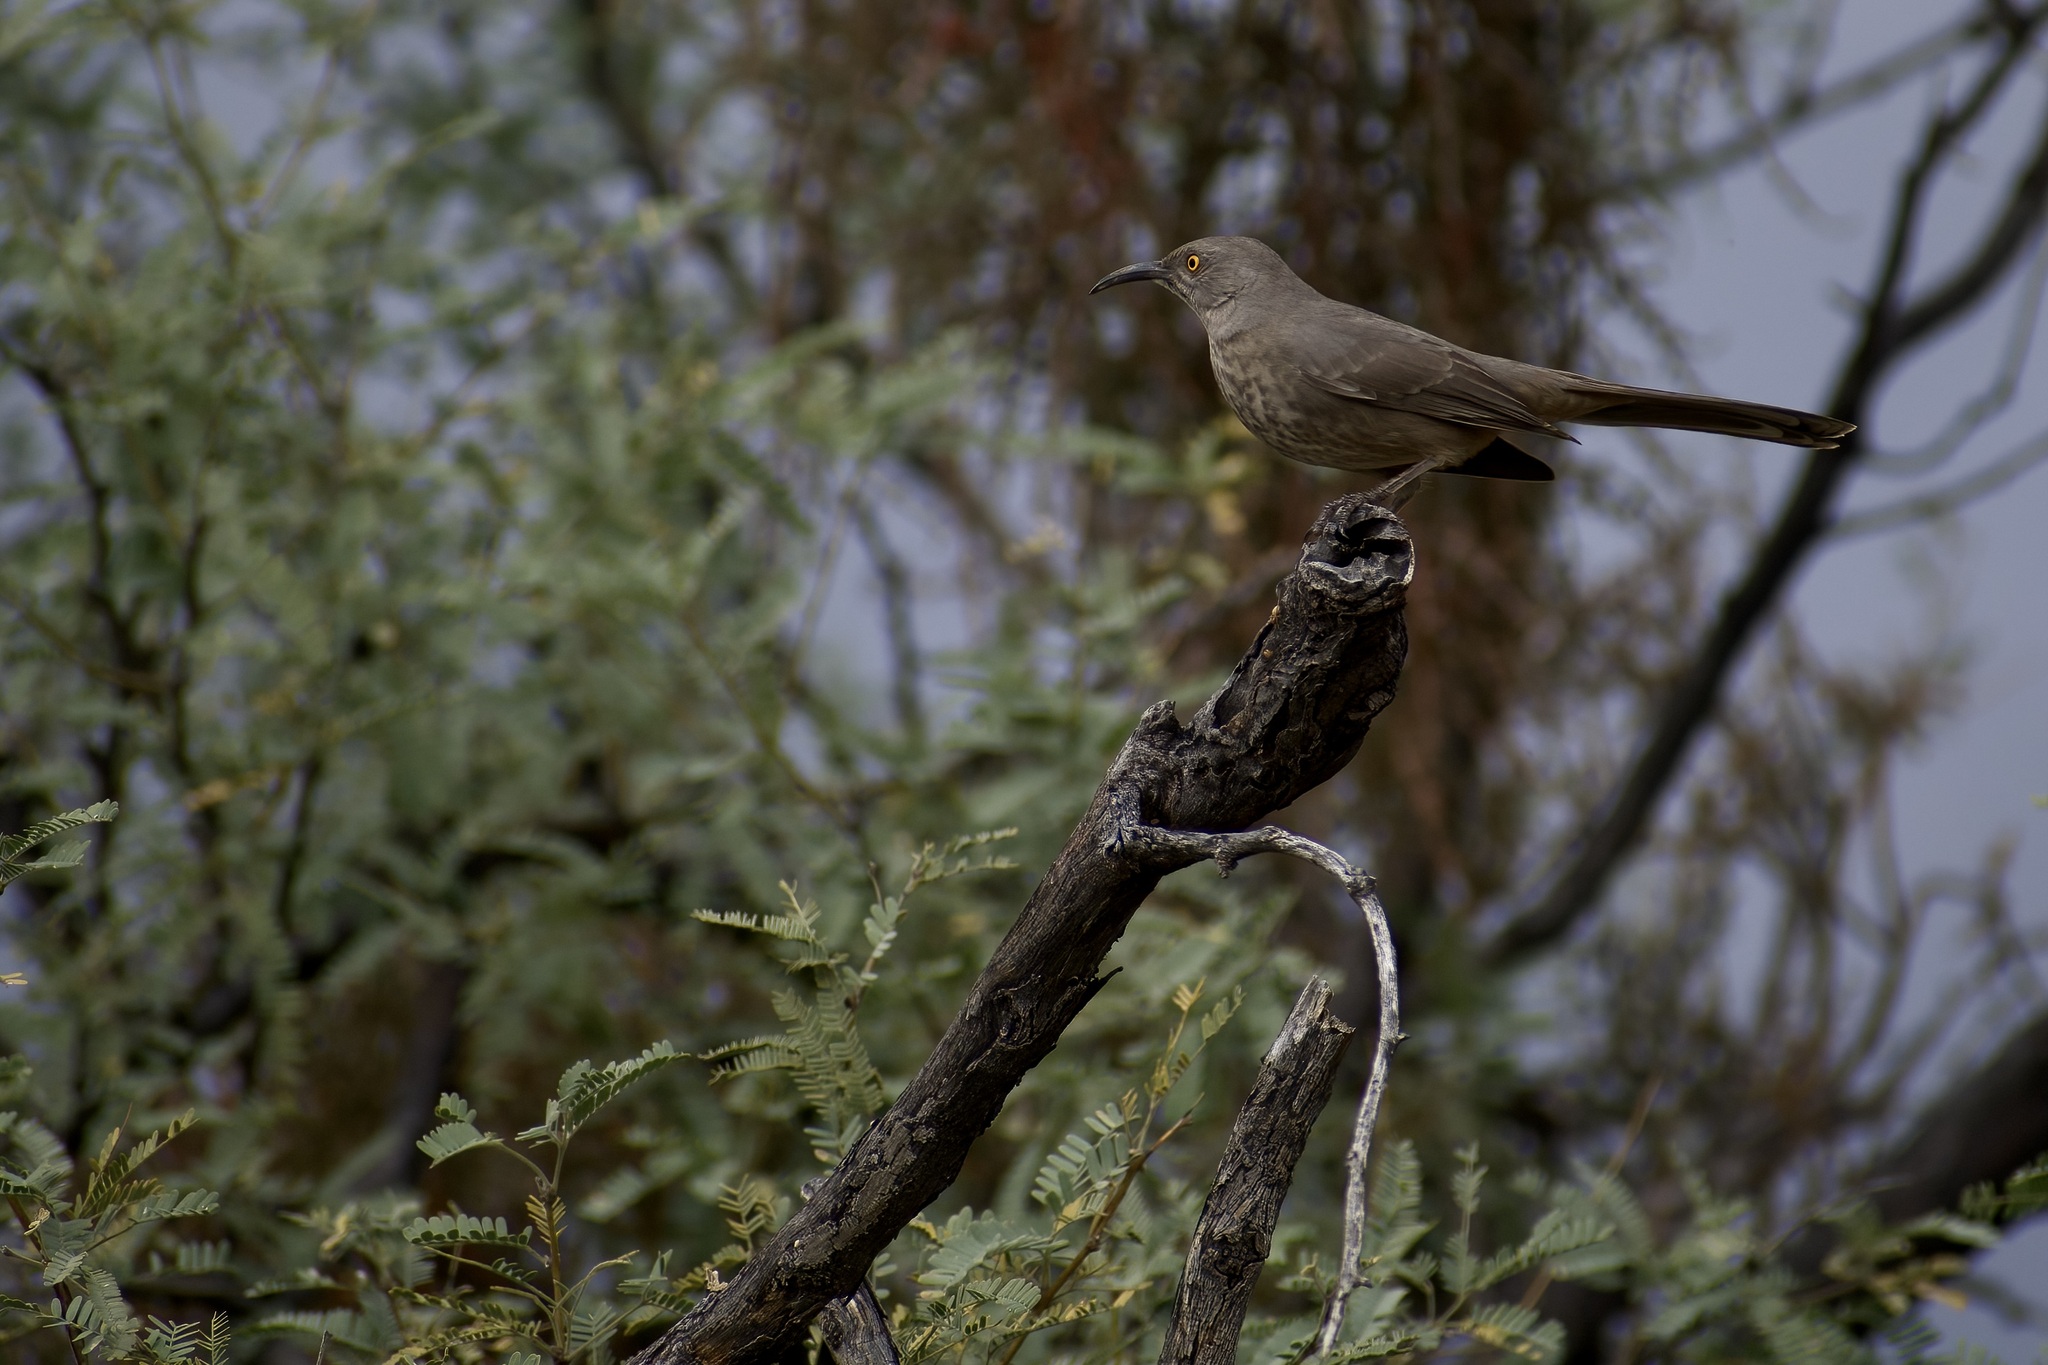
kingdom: Animalia
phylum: Chordata
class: Aves
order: Passeriformes
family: Mimidae
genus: Toxostoma
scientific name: Toxostoma curvirostre
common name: Curve-billed thrasher
